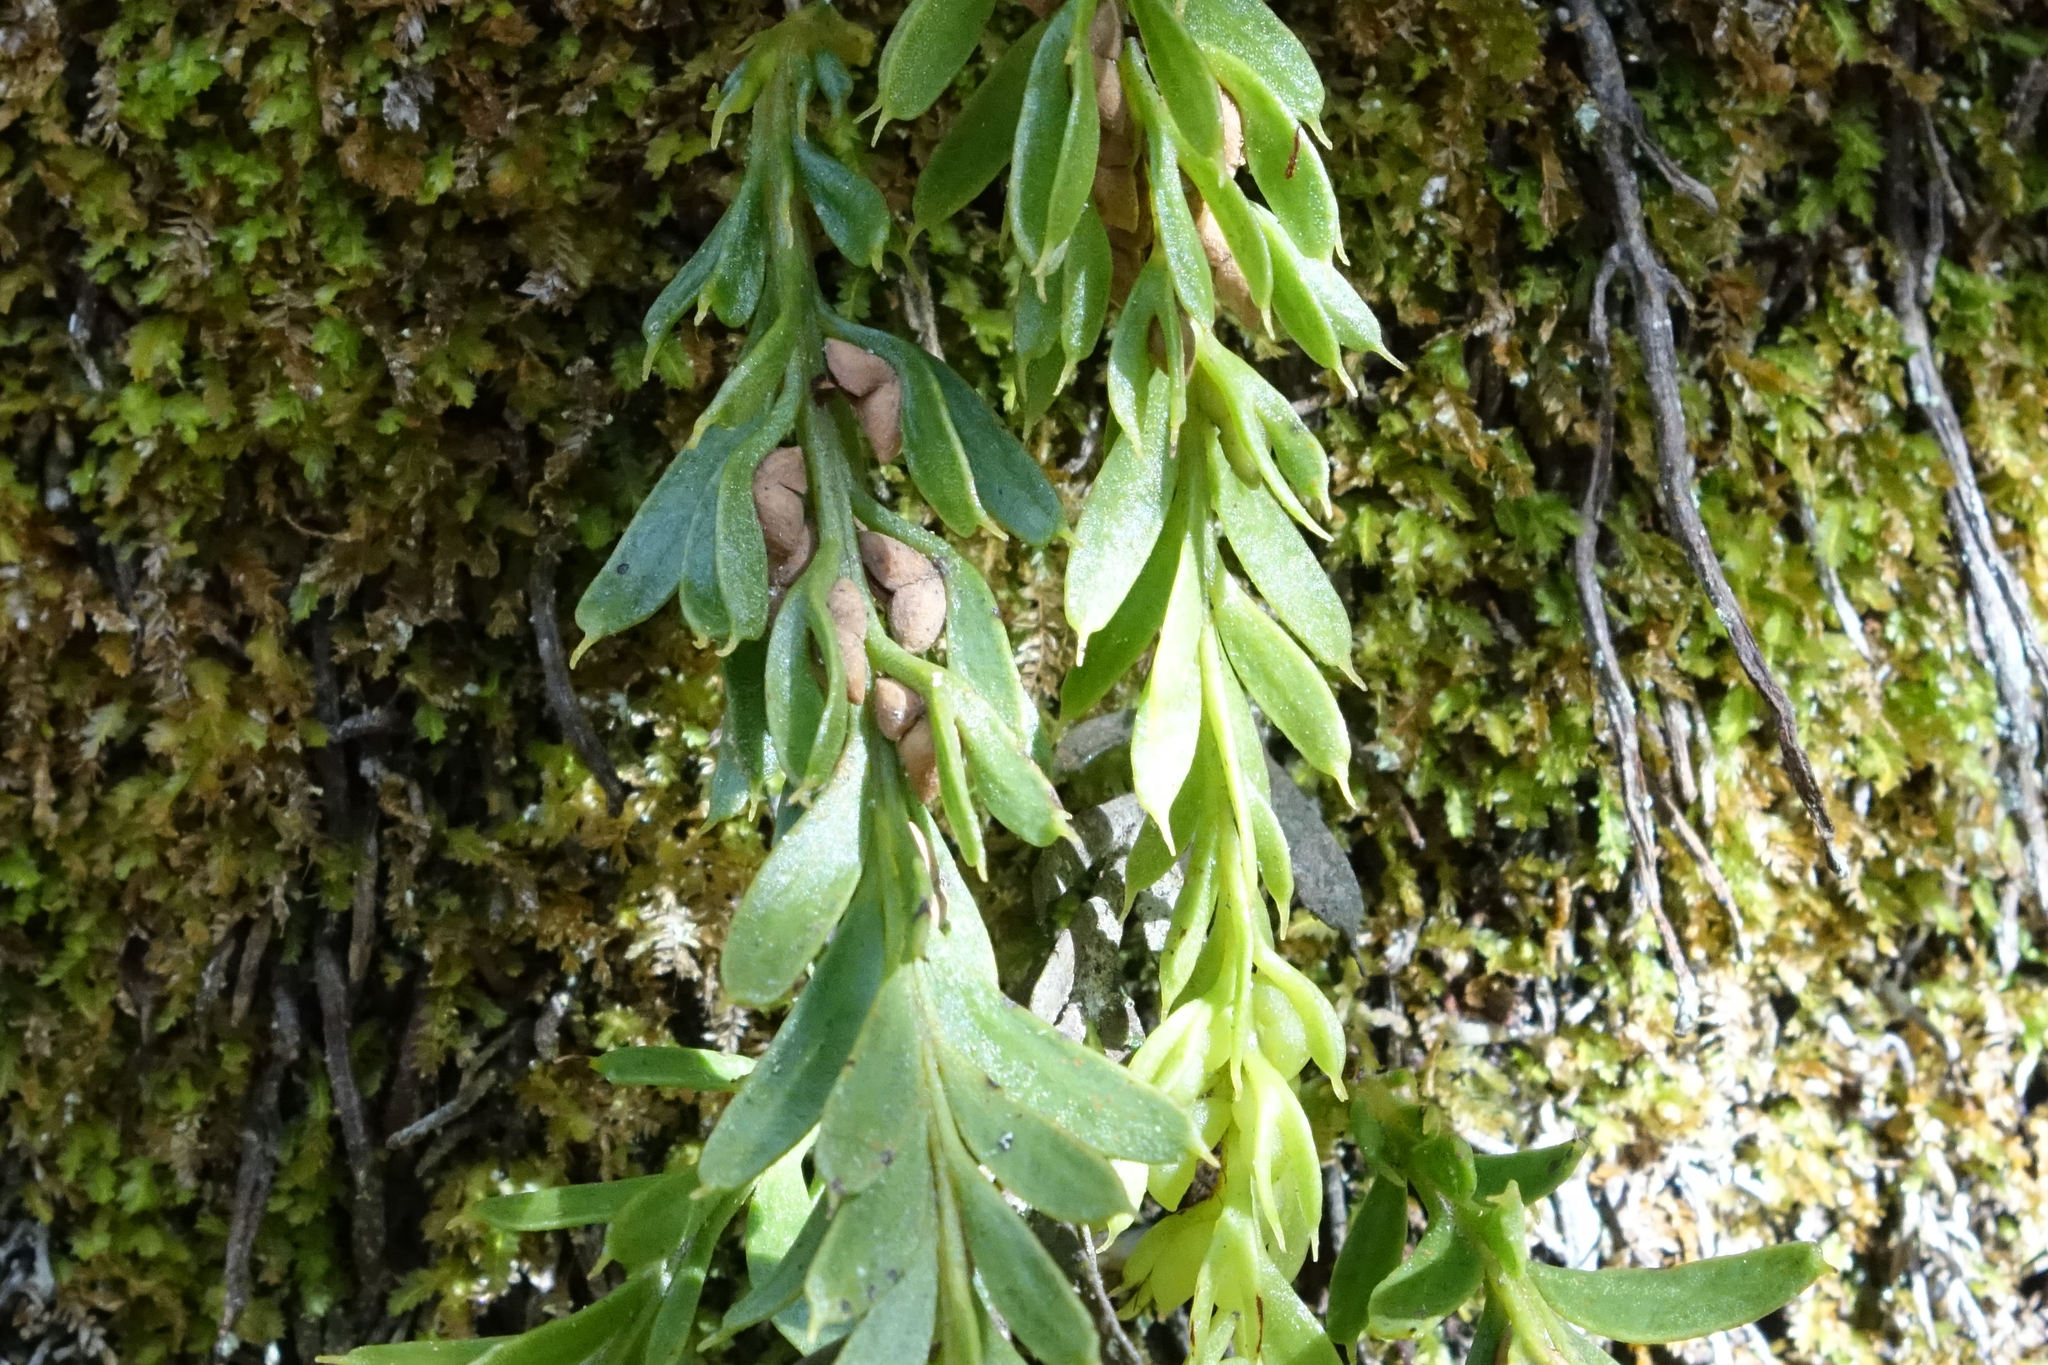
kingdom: Plantae
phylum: Tracheophyta
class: Polypodiopsida
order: Psilotales
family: Psilotaceae
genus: Tmesipteris
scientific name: Tmesipteris tannensis
